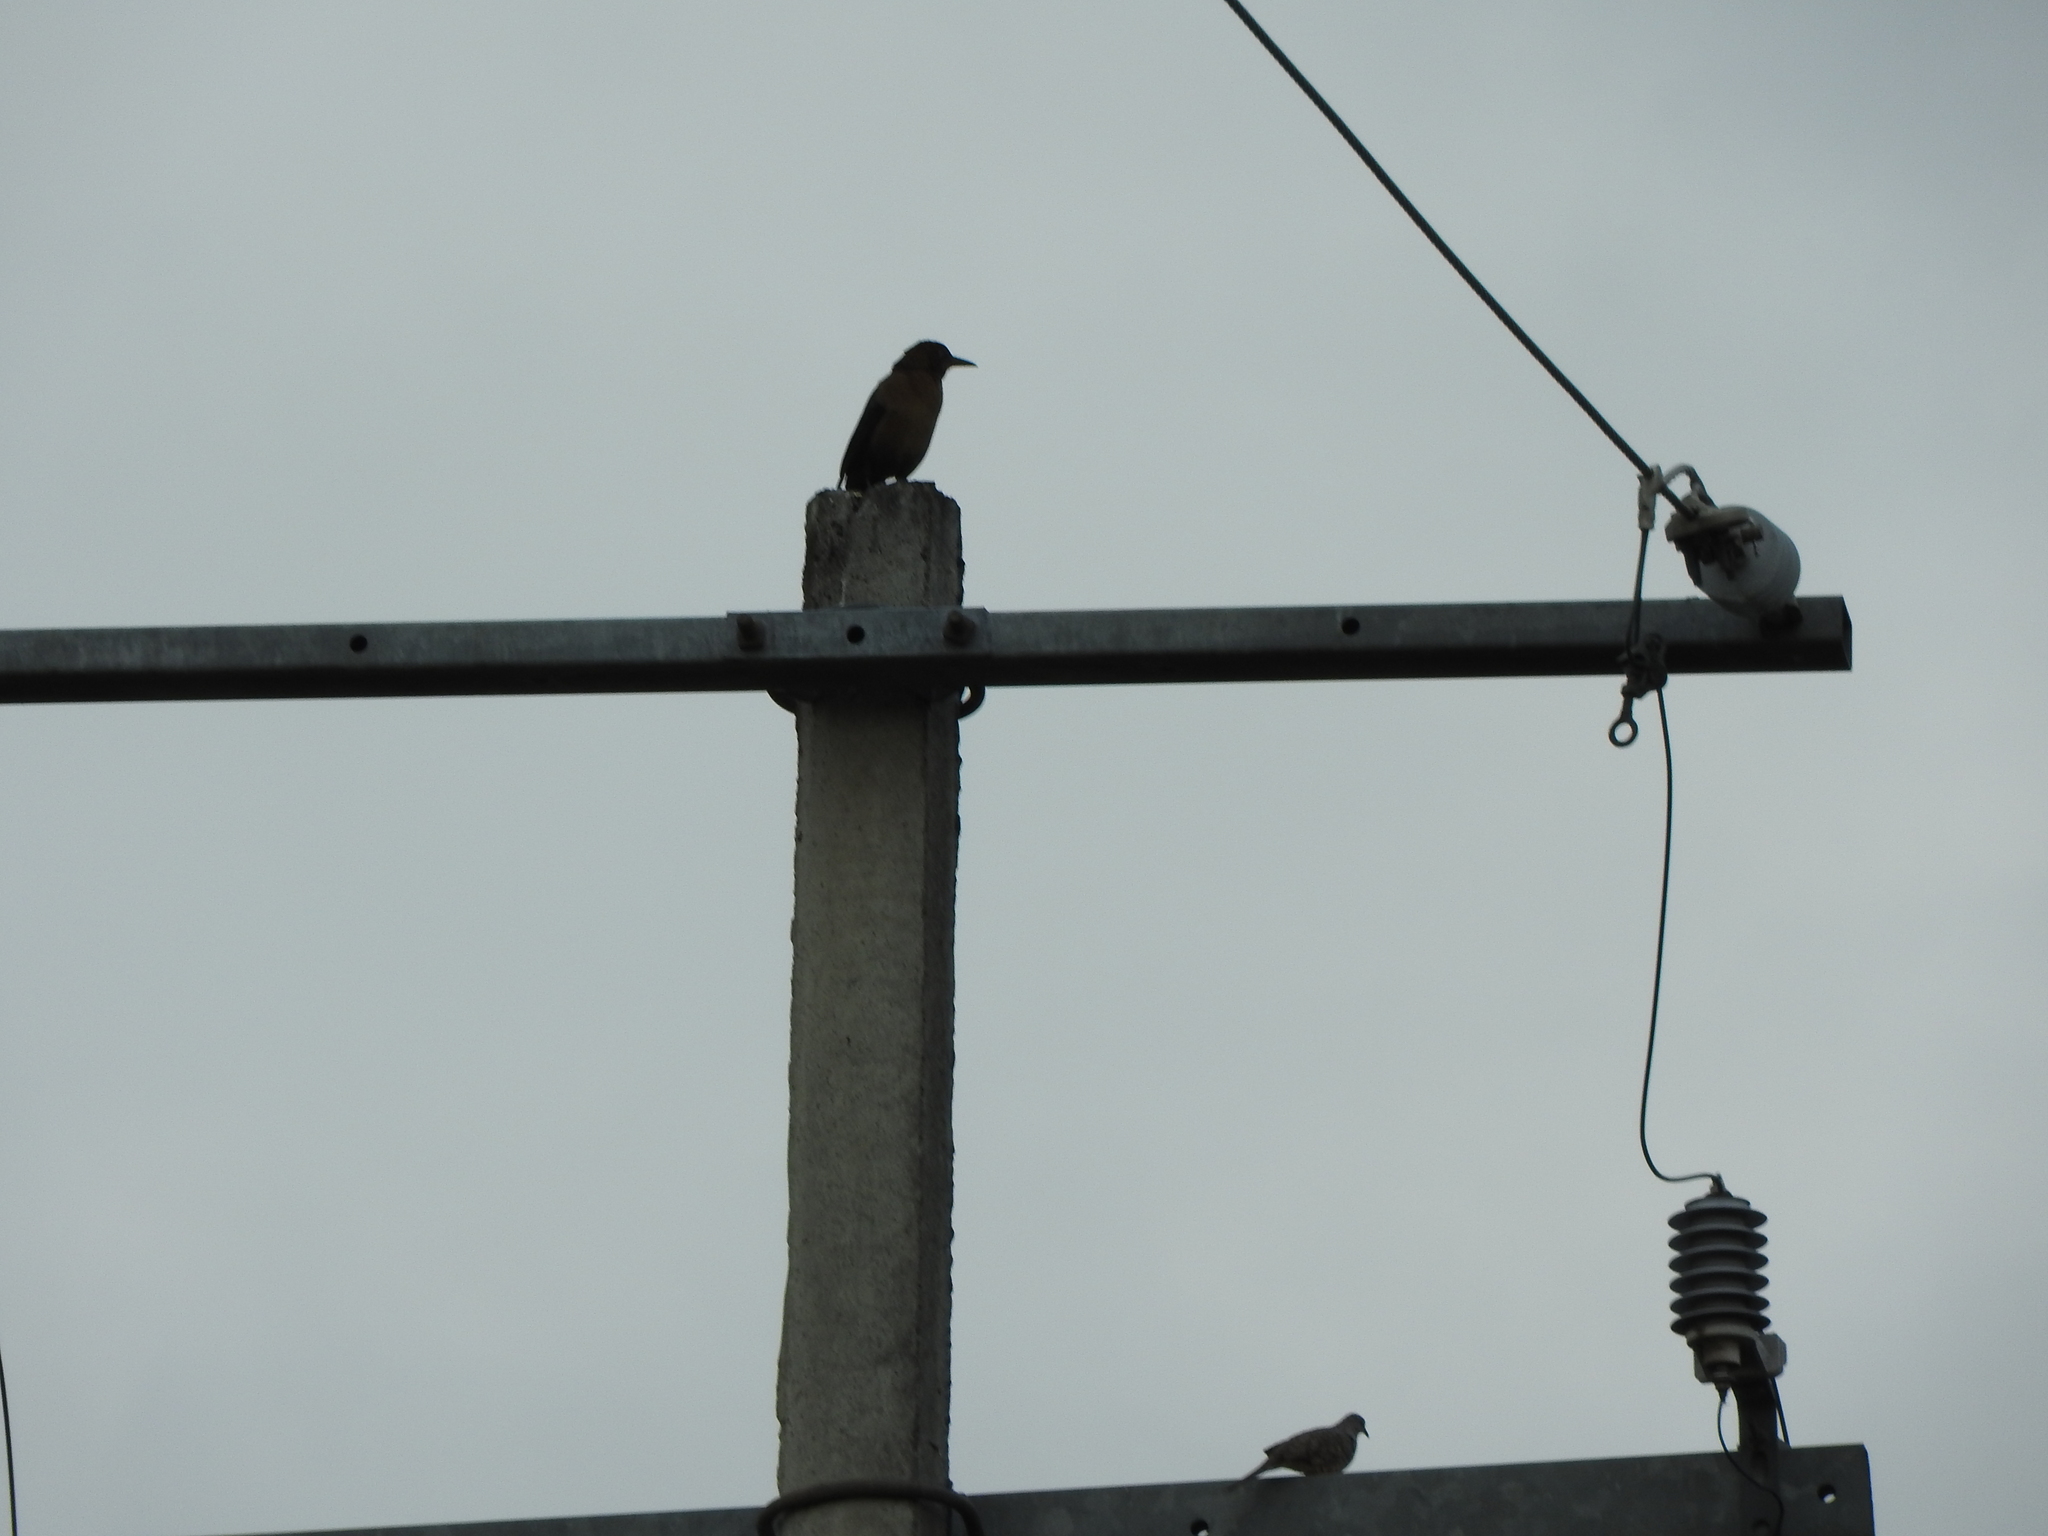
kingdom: Animalia
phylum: Chordata
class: Aves
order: Passeriformes
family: Icteridae
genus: Quiscalus
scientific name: Quiscalus mexicanus
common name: Great-tailed grackle
